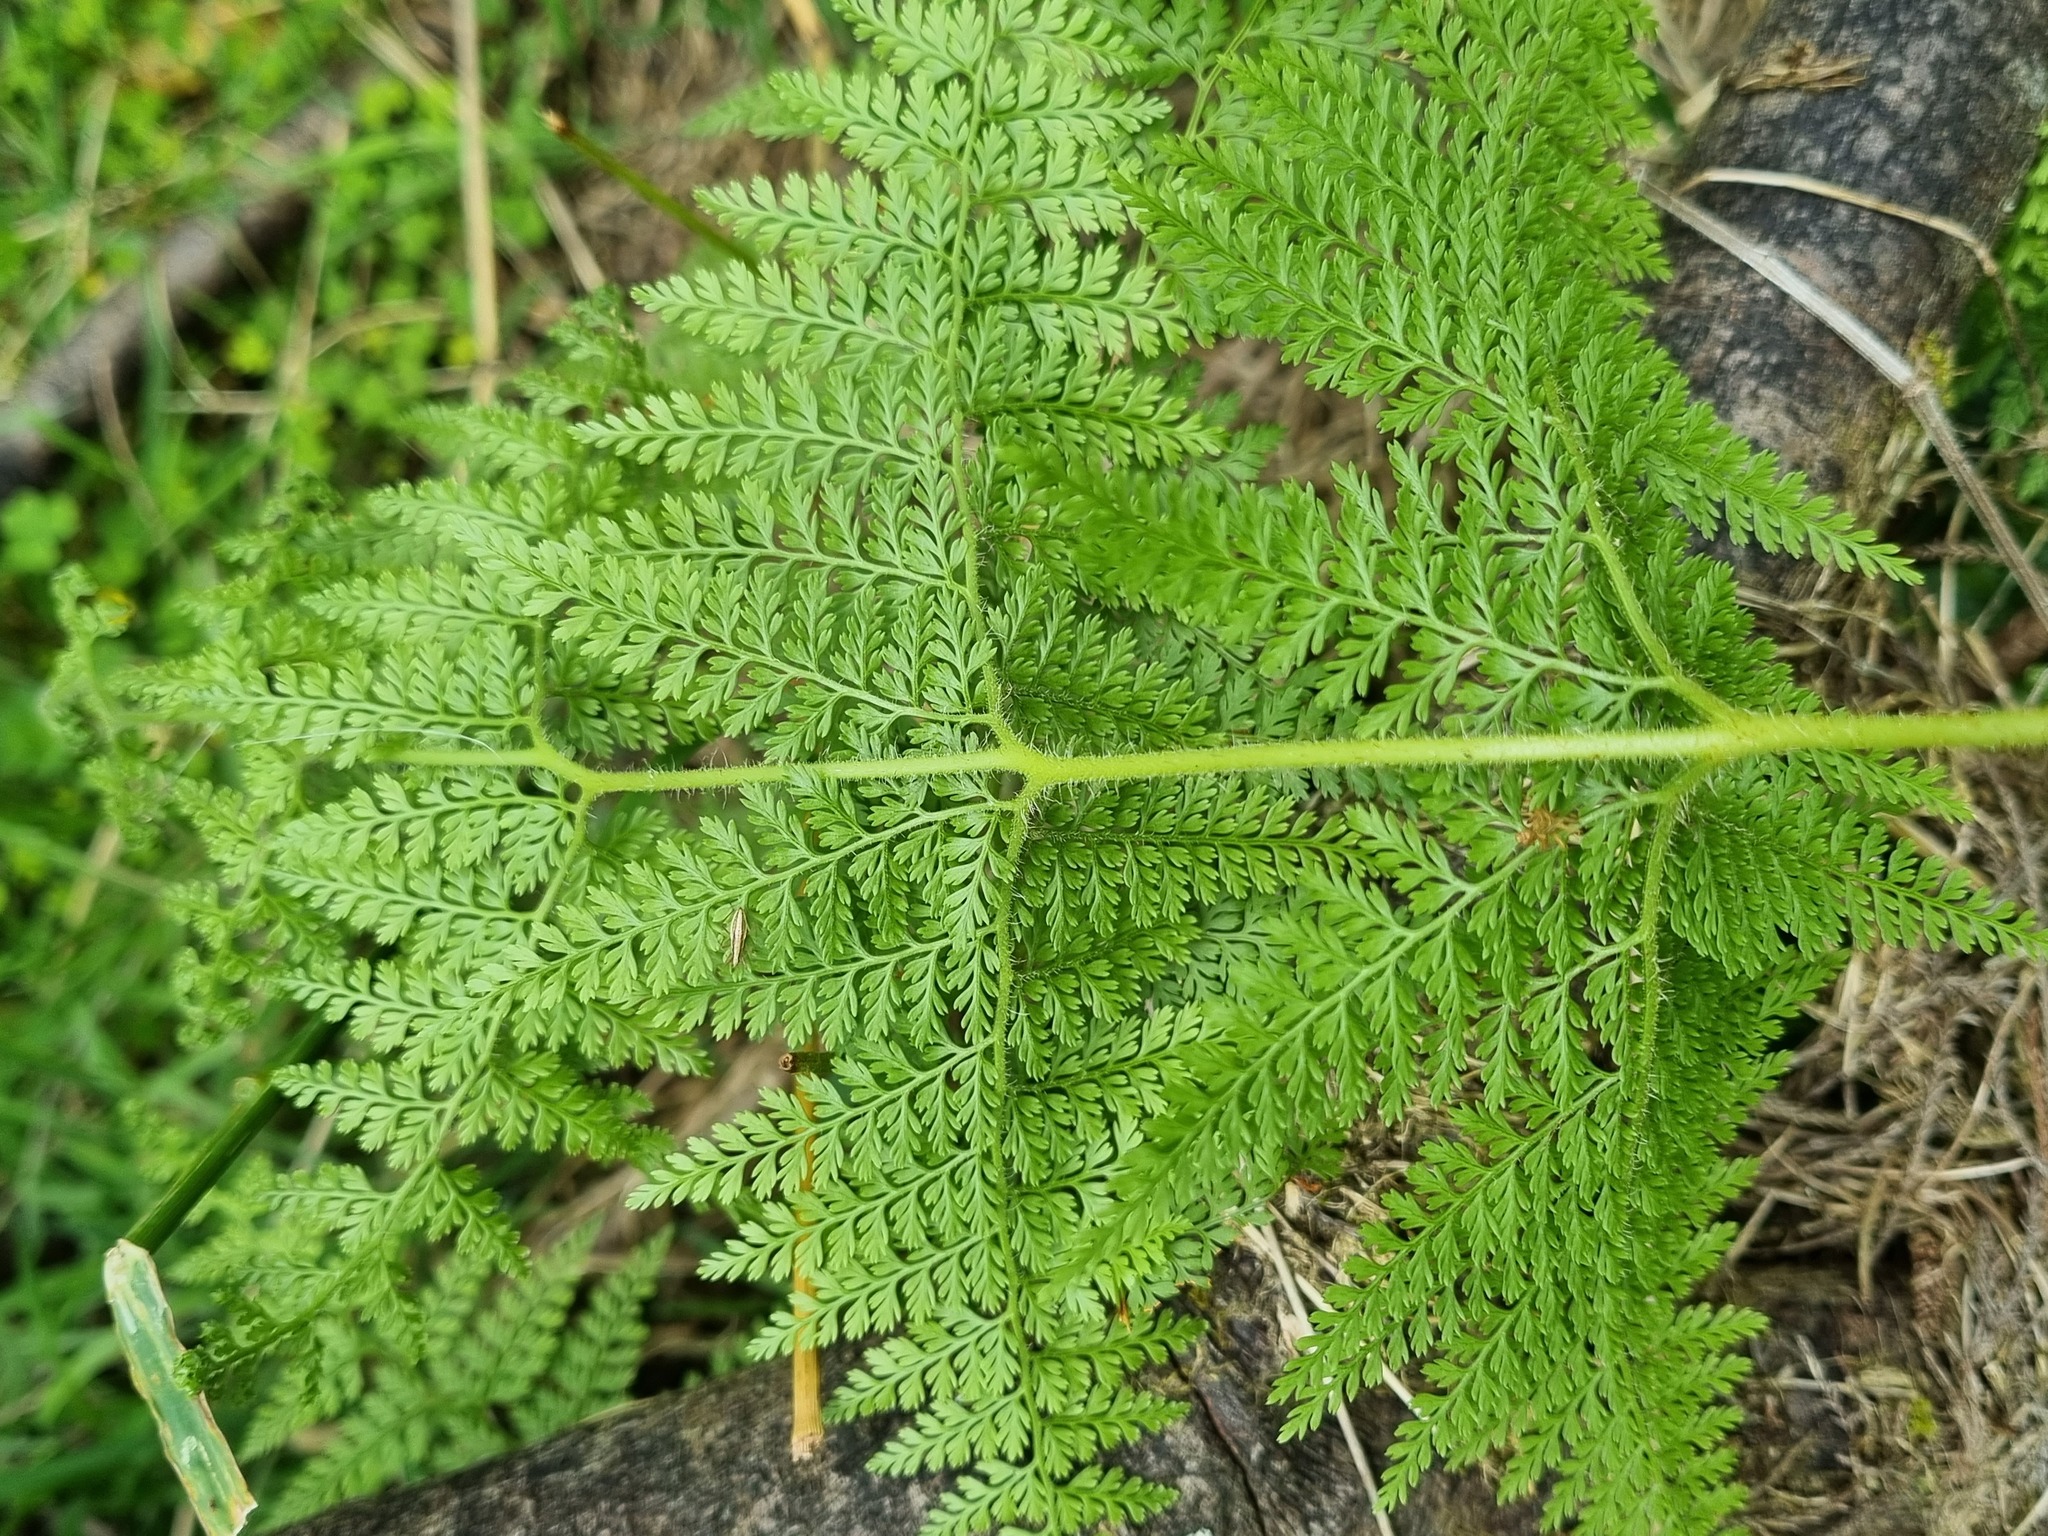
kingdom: Plantae
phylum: Tracheophyta
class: Polypodiopsida
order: Polypodiales
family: Dennstaedtiaceae
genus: Paesia
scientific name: Paesia scaberula
